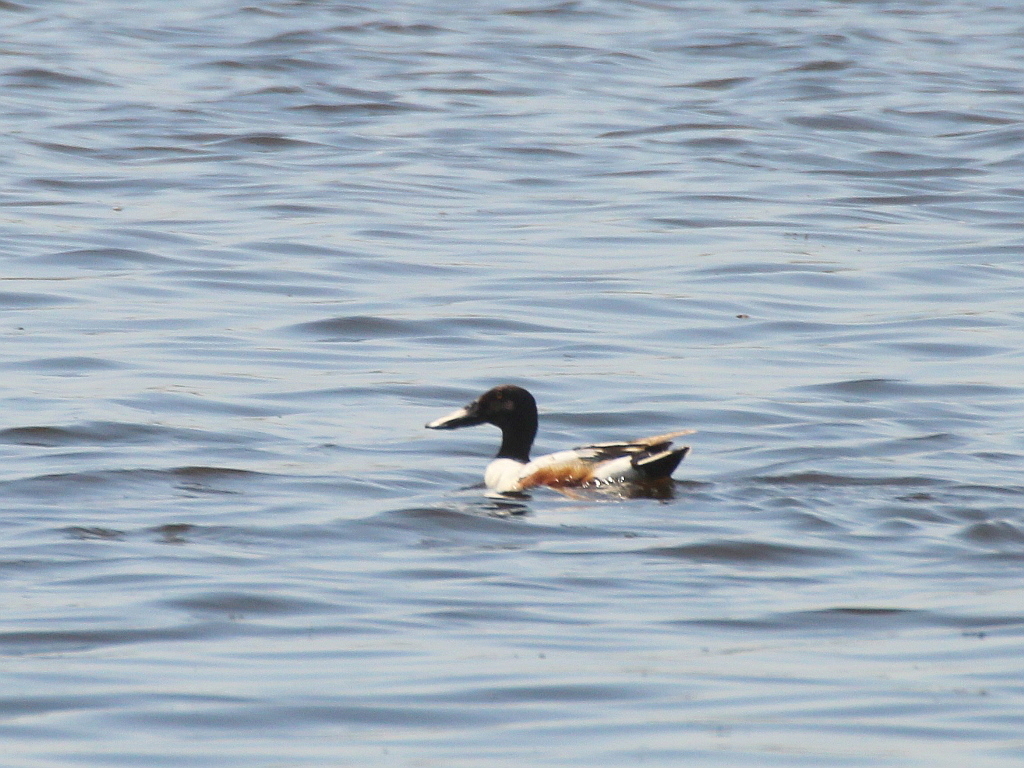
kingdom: Animalia
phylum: Chordata
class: Aves
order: Anseriformes
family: Anatidae
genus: Spatula
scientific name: Spatula clypeata
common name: Northern shoveler
